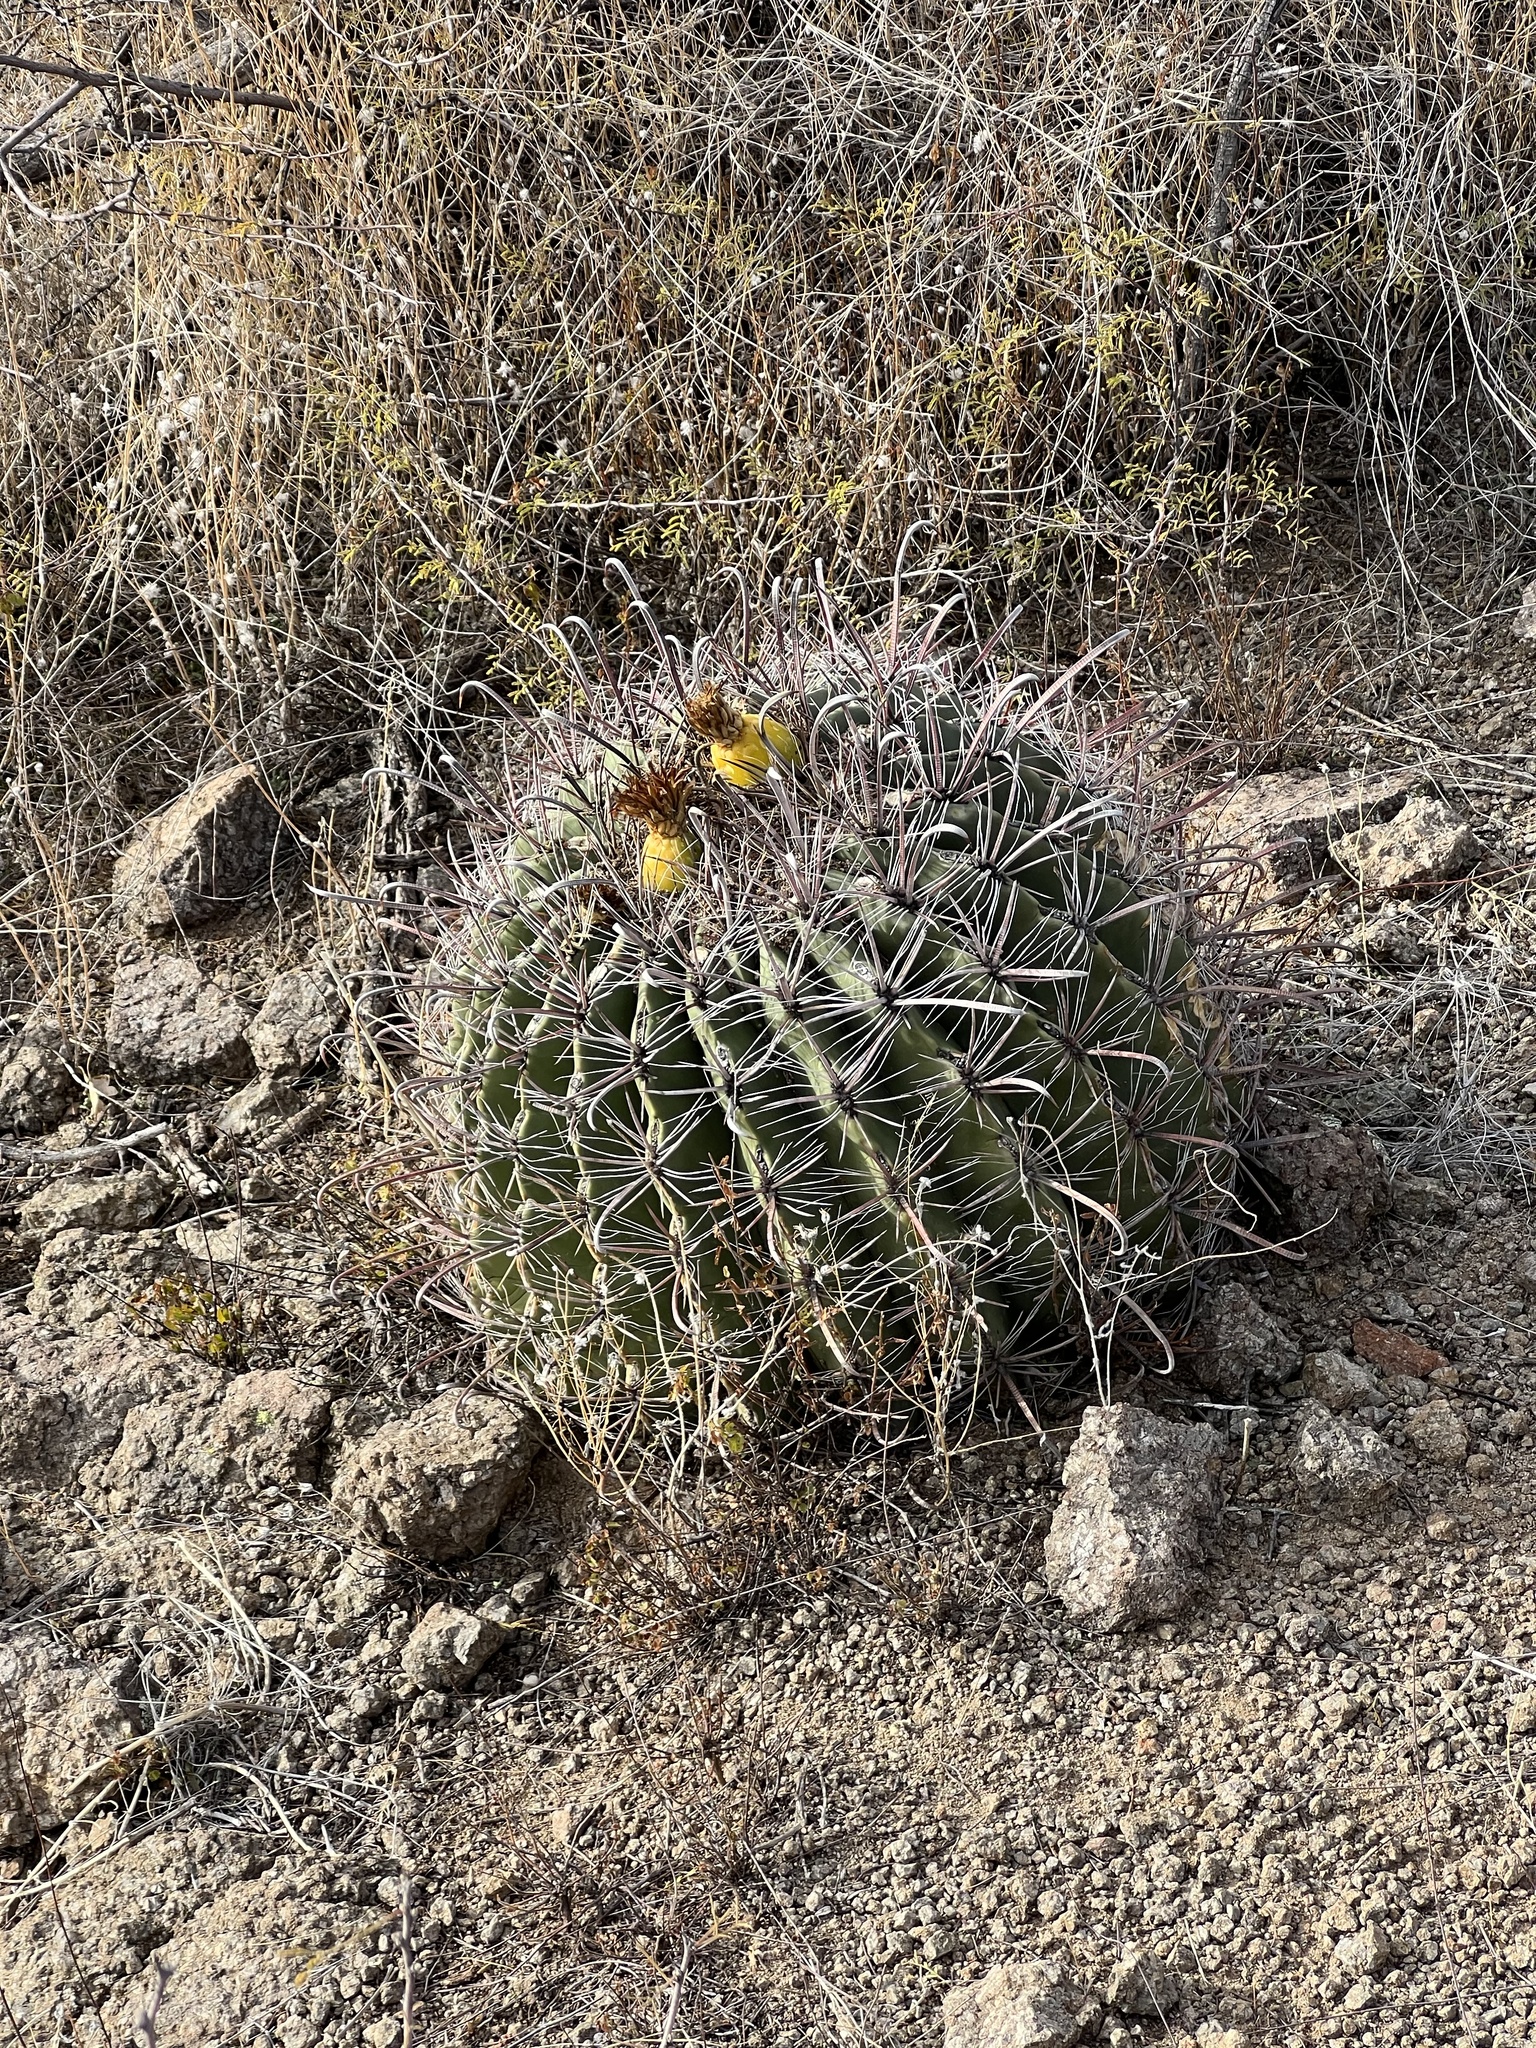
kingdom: Plantae
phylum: Tracheophyta
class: Magnoliopsida
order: Caryophyllales
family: Cactaceae
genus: Ferocactus
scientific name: Ferocactus wislizeni
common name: Candy barrel cactus
